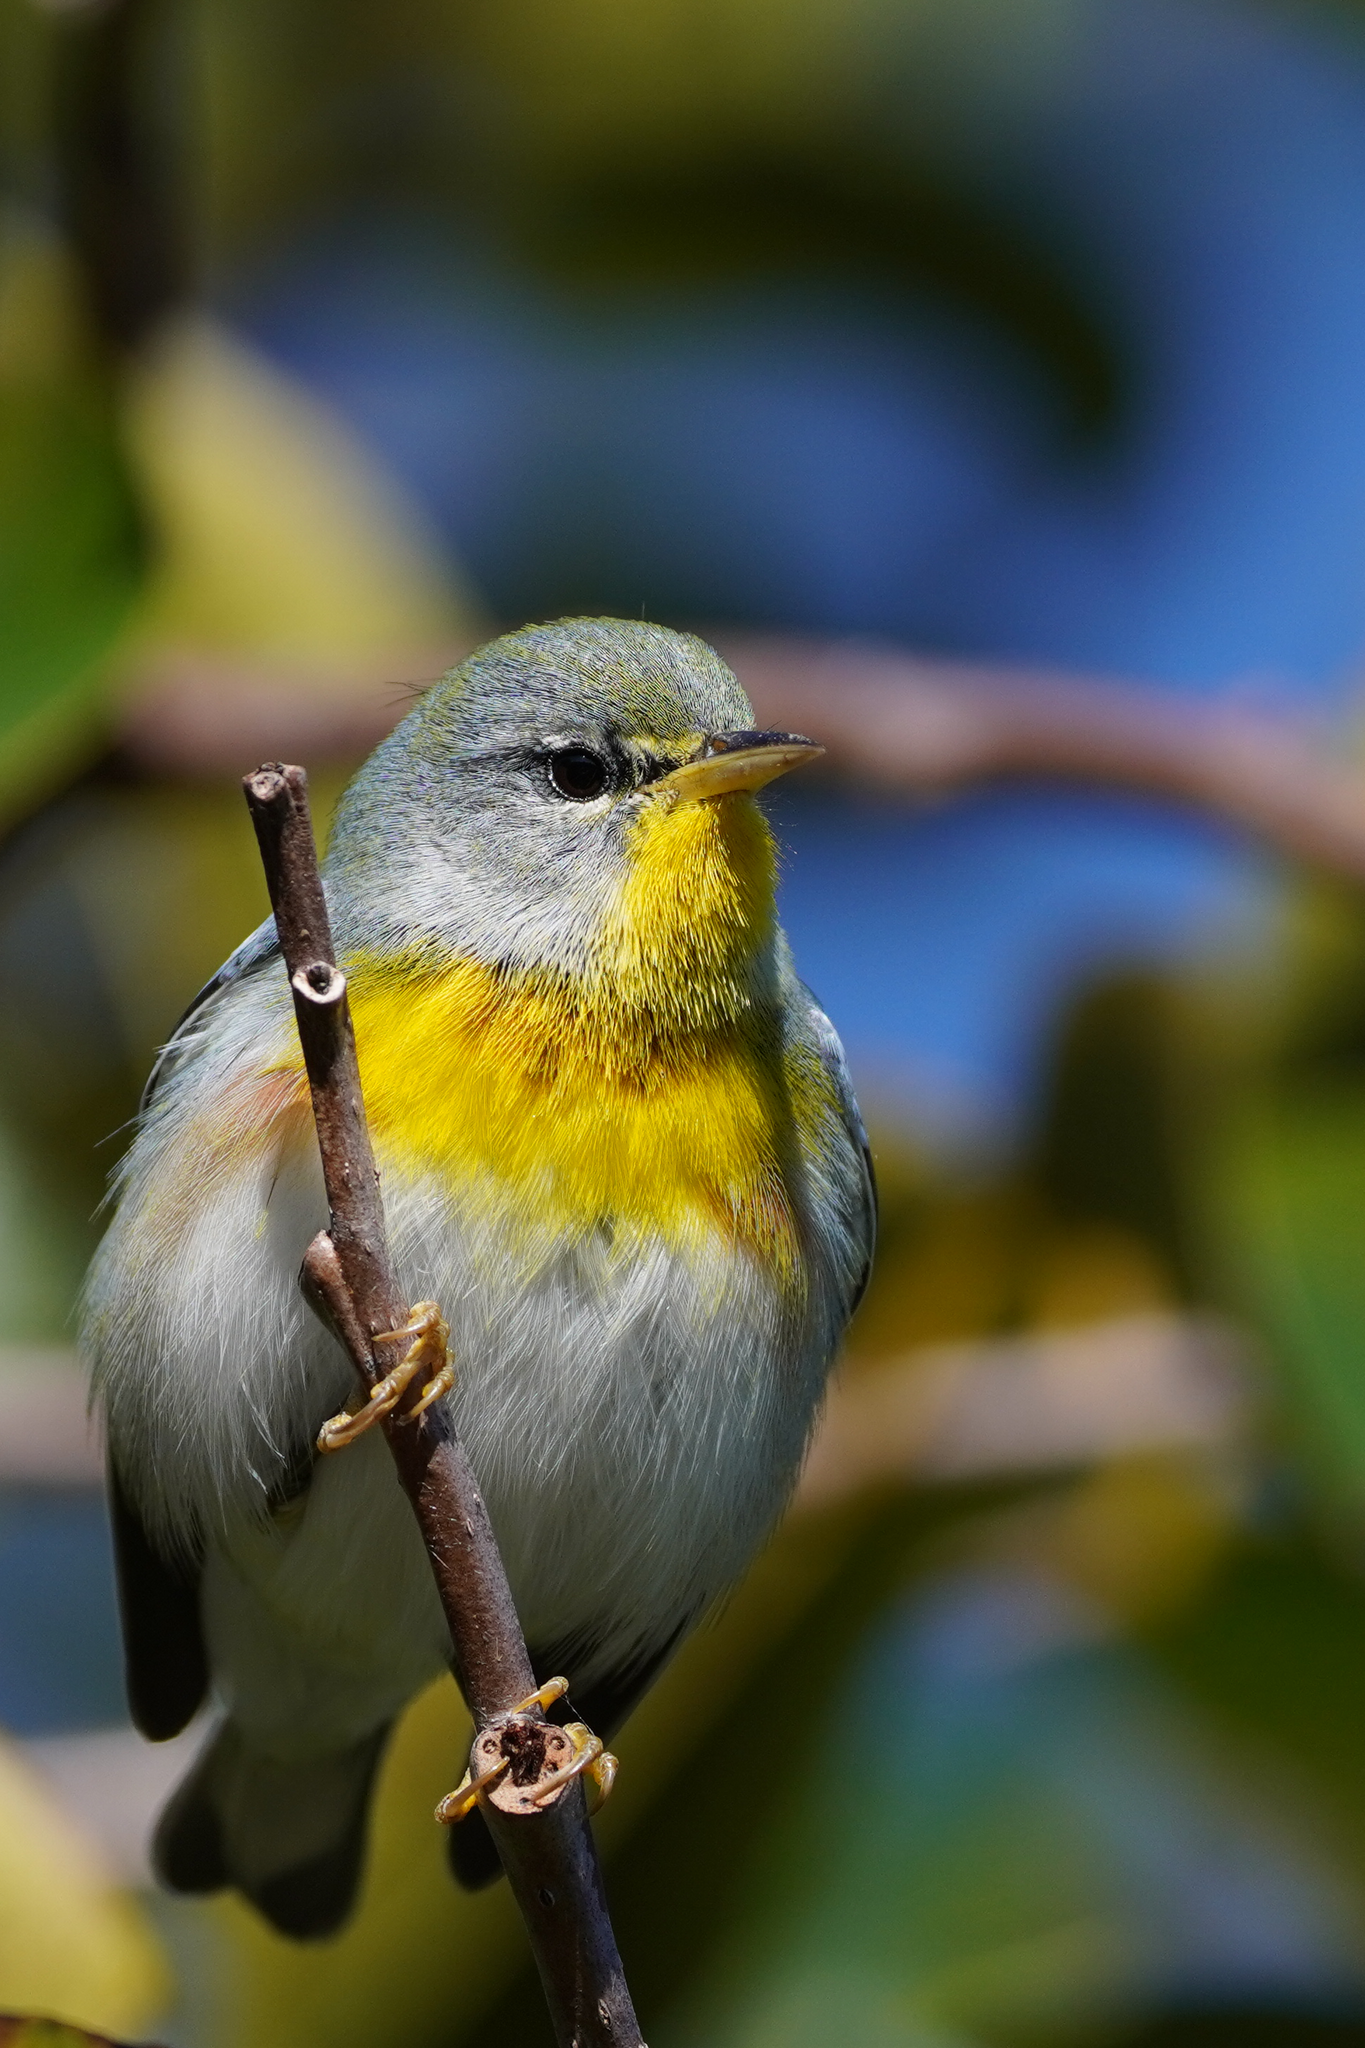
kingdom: Animalia
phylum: Chordata
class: Aves
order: Passeriformes
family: Parulidae
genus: Setophaga
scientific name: Setophaga americana
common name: Northern parula
